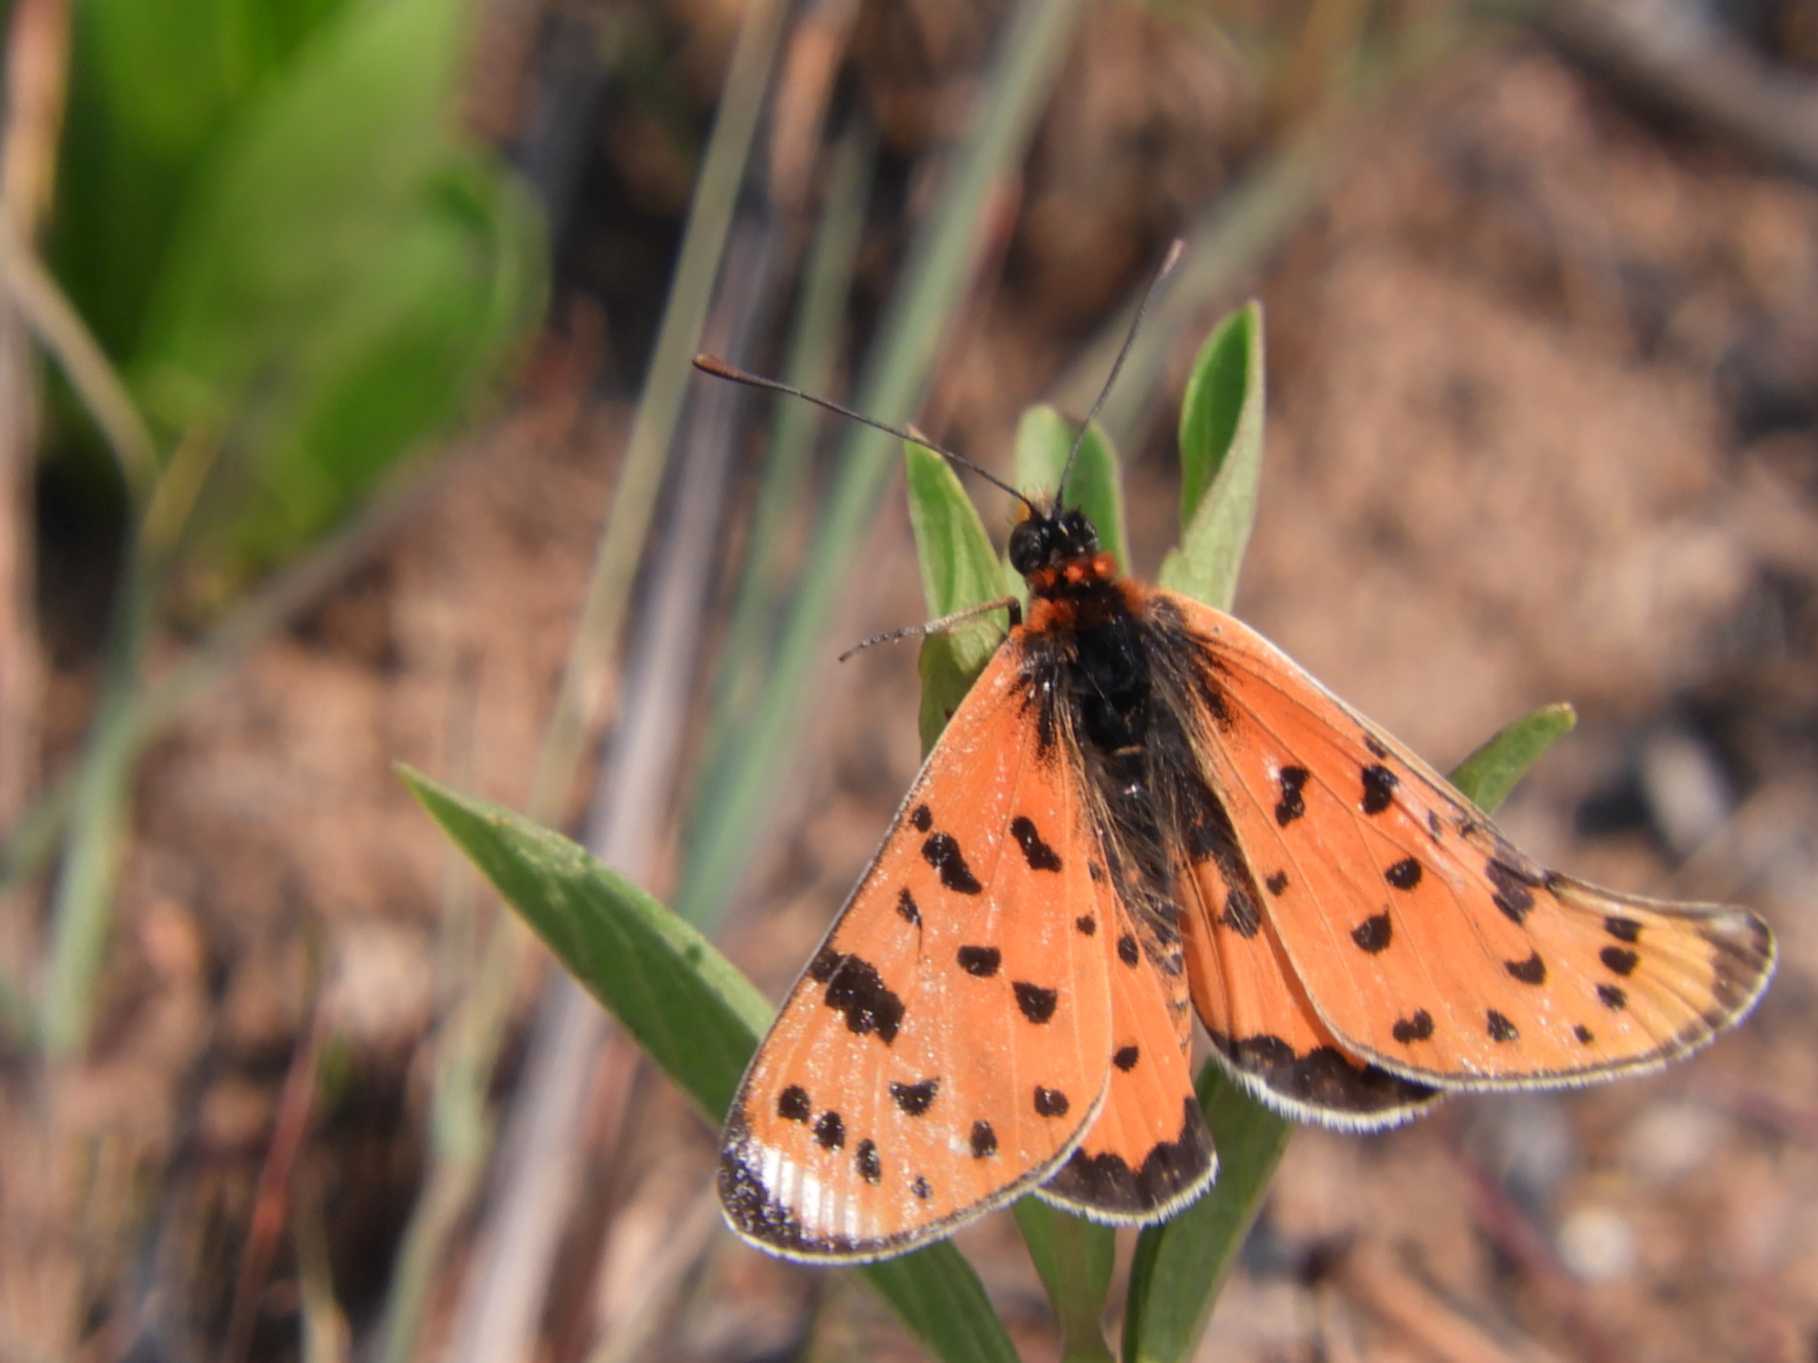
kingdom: Animalia
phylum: Arthropoda
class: Insecta
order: Lepidoptera
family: Nymphalidae
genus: Rubraea
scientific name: Rubraea
